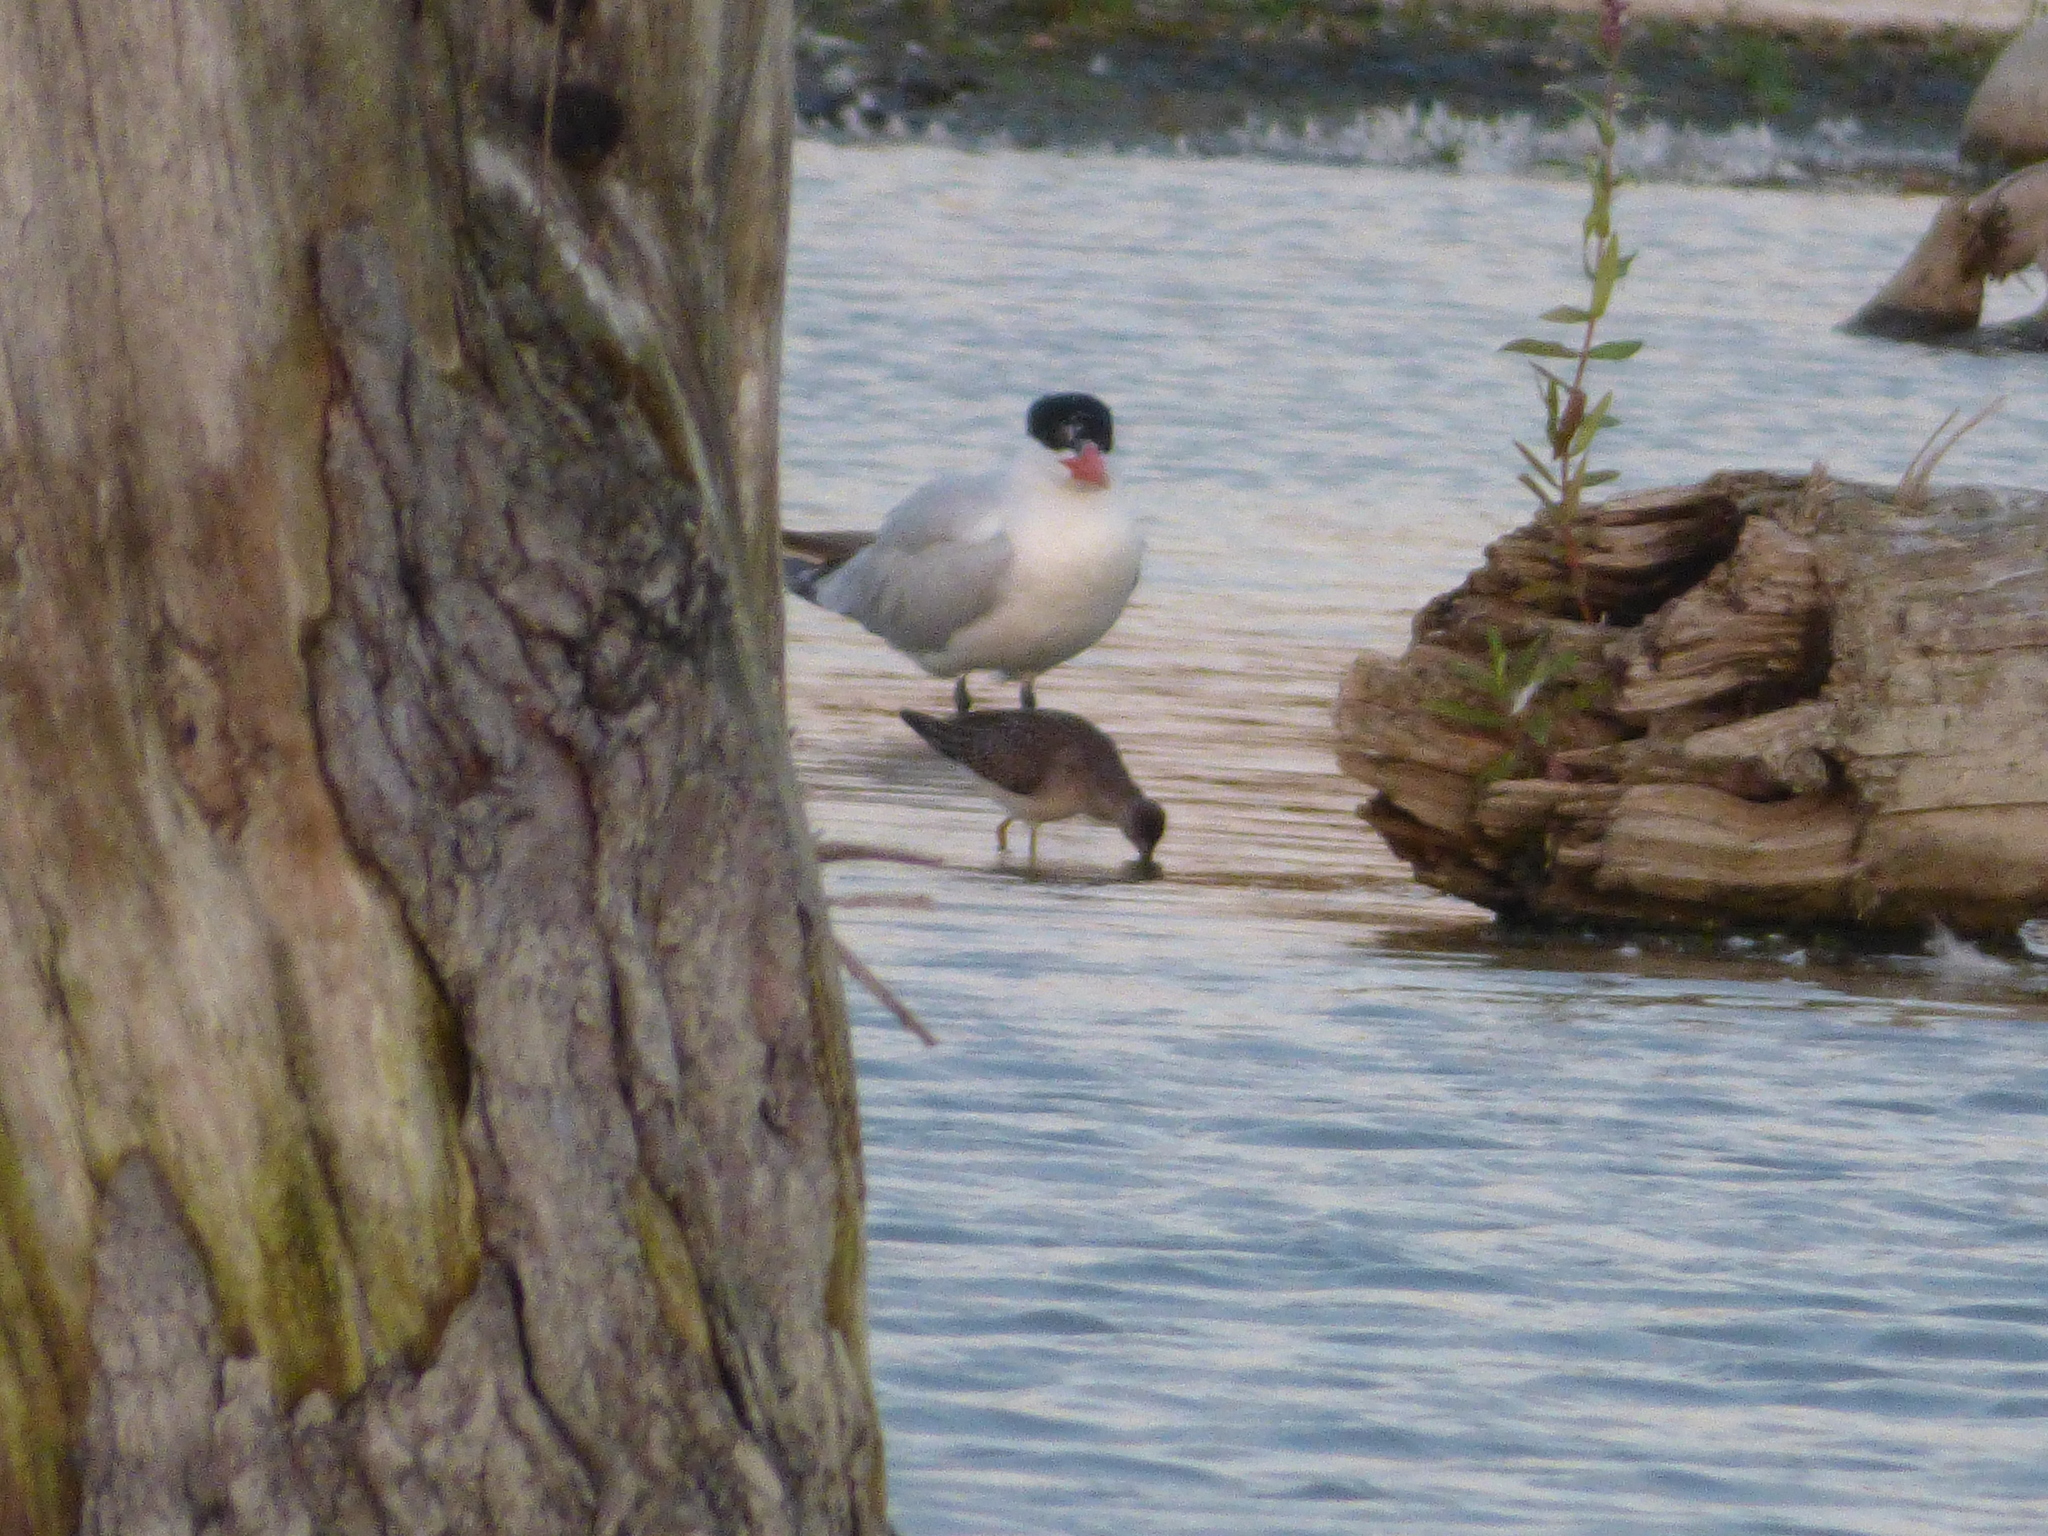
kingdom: Animalia
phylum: Chordata
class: Aves
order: Charadriiformes
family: Laridae
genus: Hydroprogne
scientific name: Hydroprogne caspia
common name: Caspian tern
